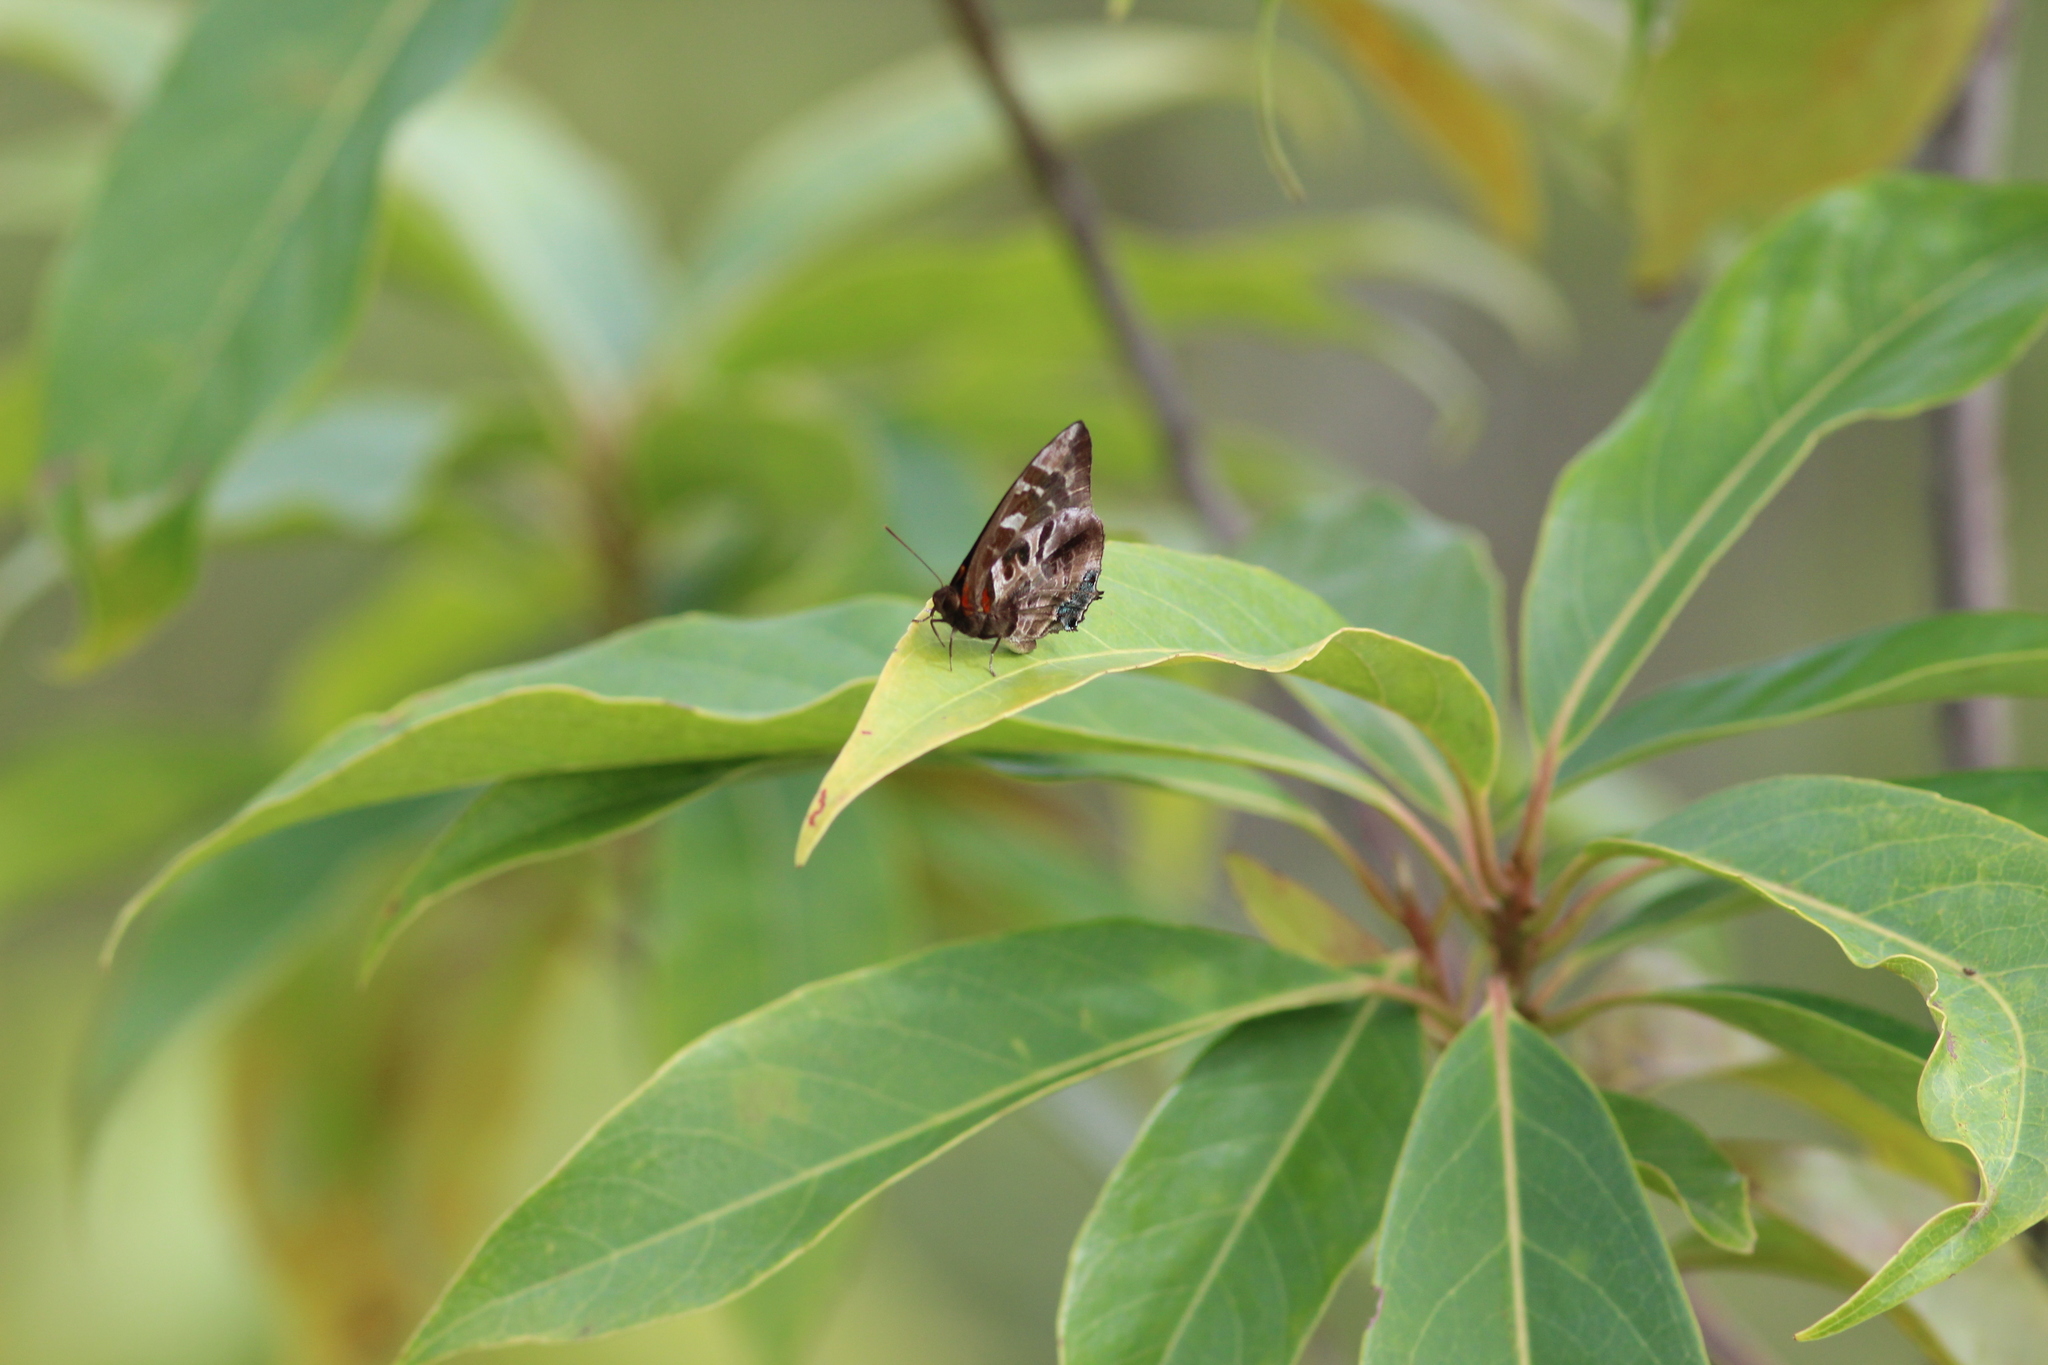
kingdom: Animalia
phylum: Arthropoda
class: Insecta
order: Lepidoptera
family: Lycaenidae
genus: Flos
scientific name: Flos
